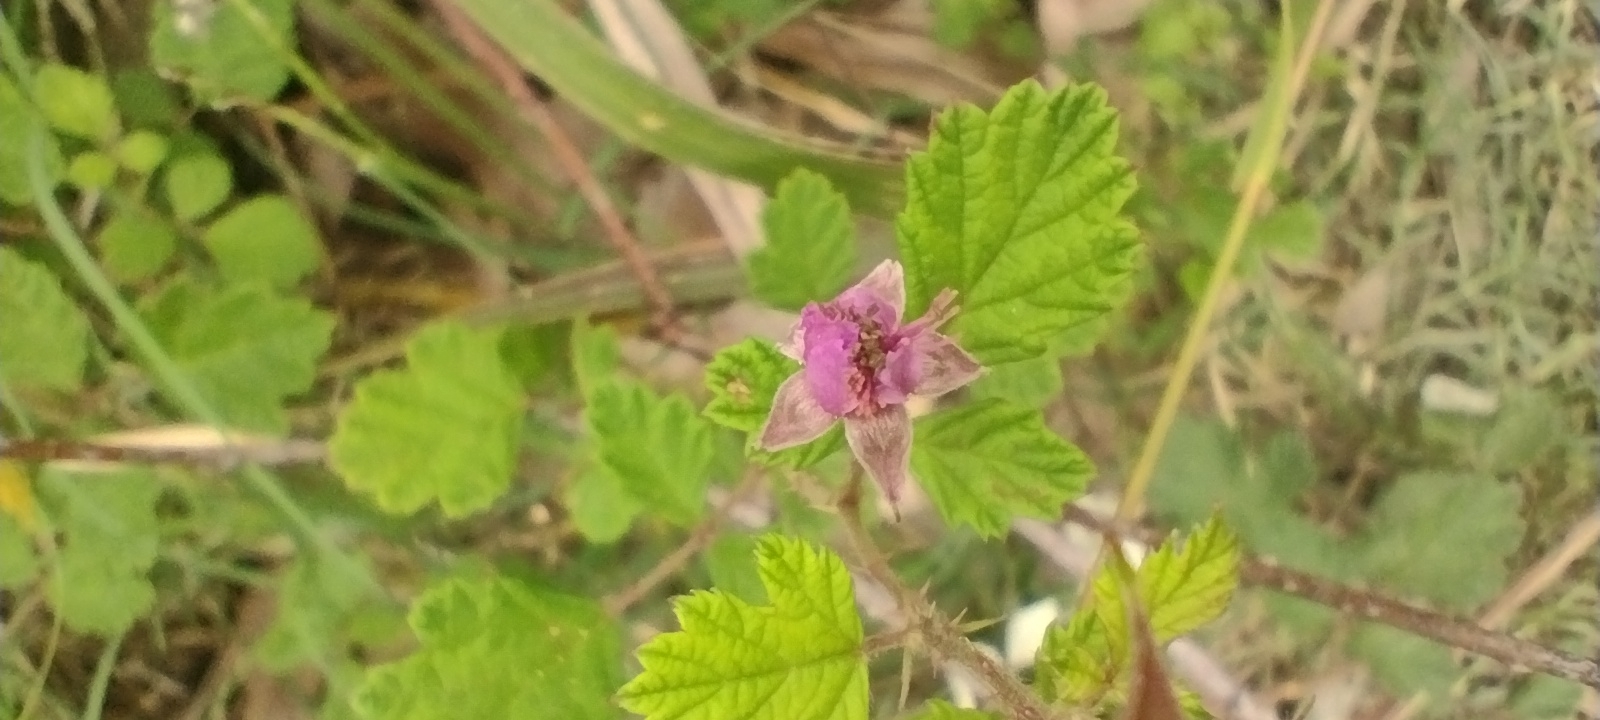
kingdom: Plantae
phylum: Tracheophyta
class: Magnoliopsida
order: Rosales
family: Rosaceae
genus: Rubus
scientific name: Rubus parvifolius
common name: Threeleaf blackberry
